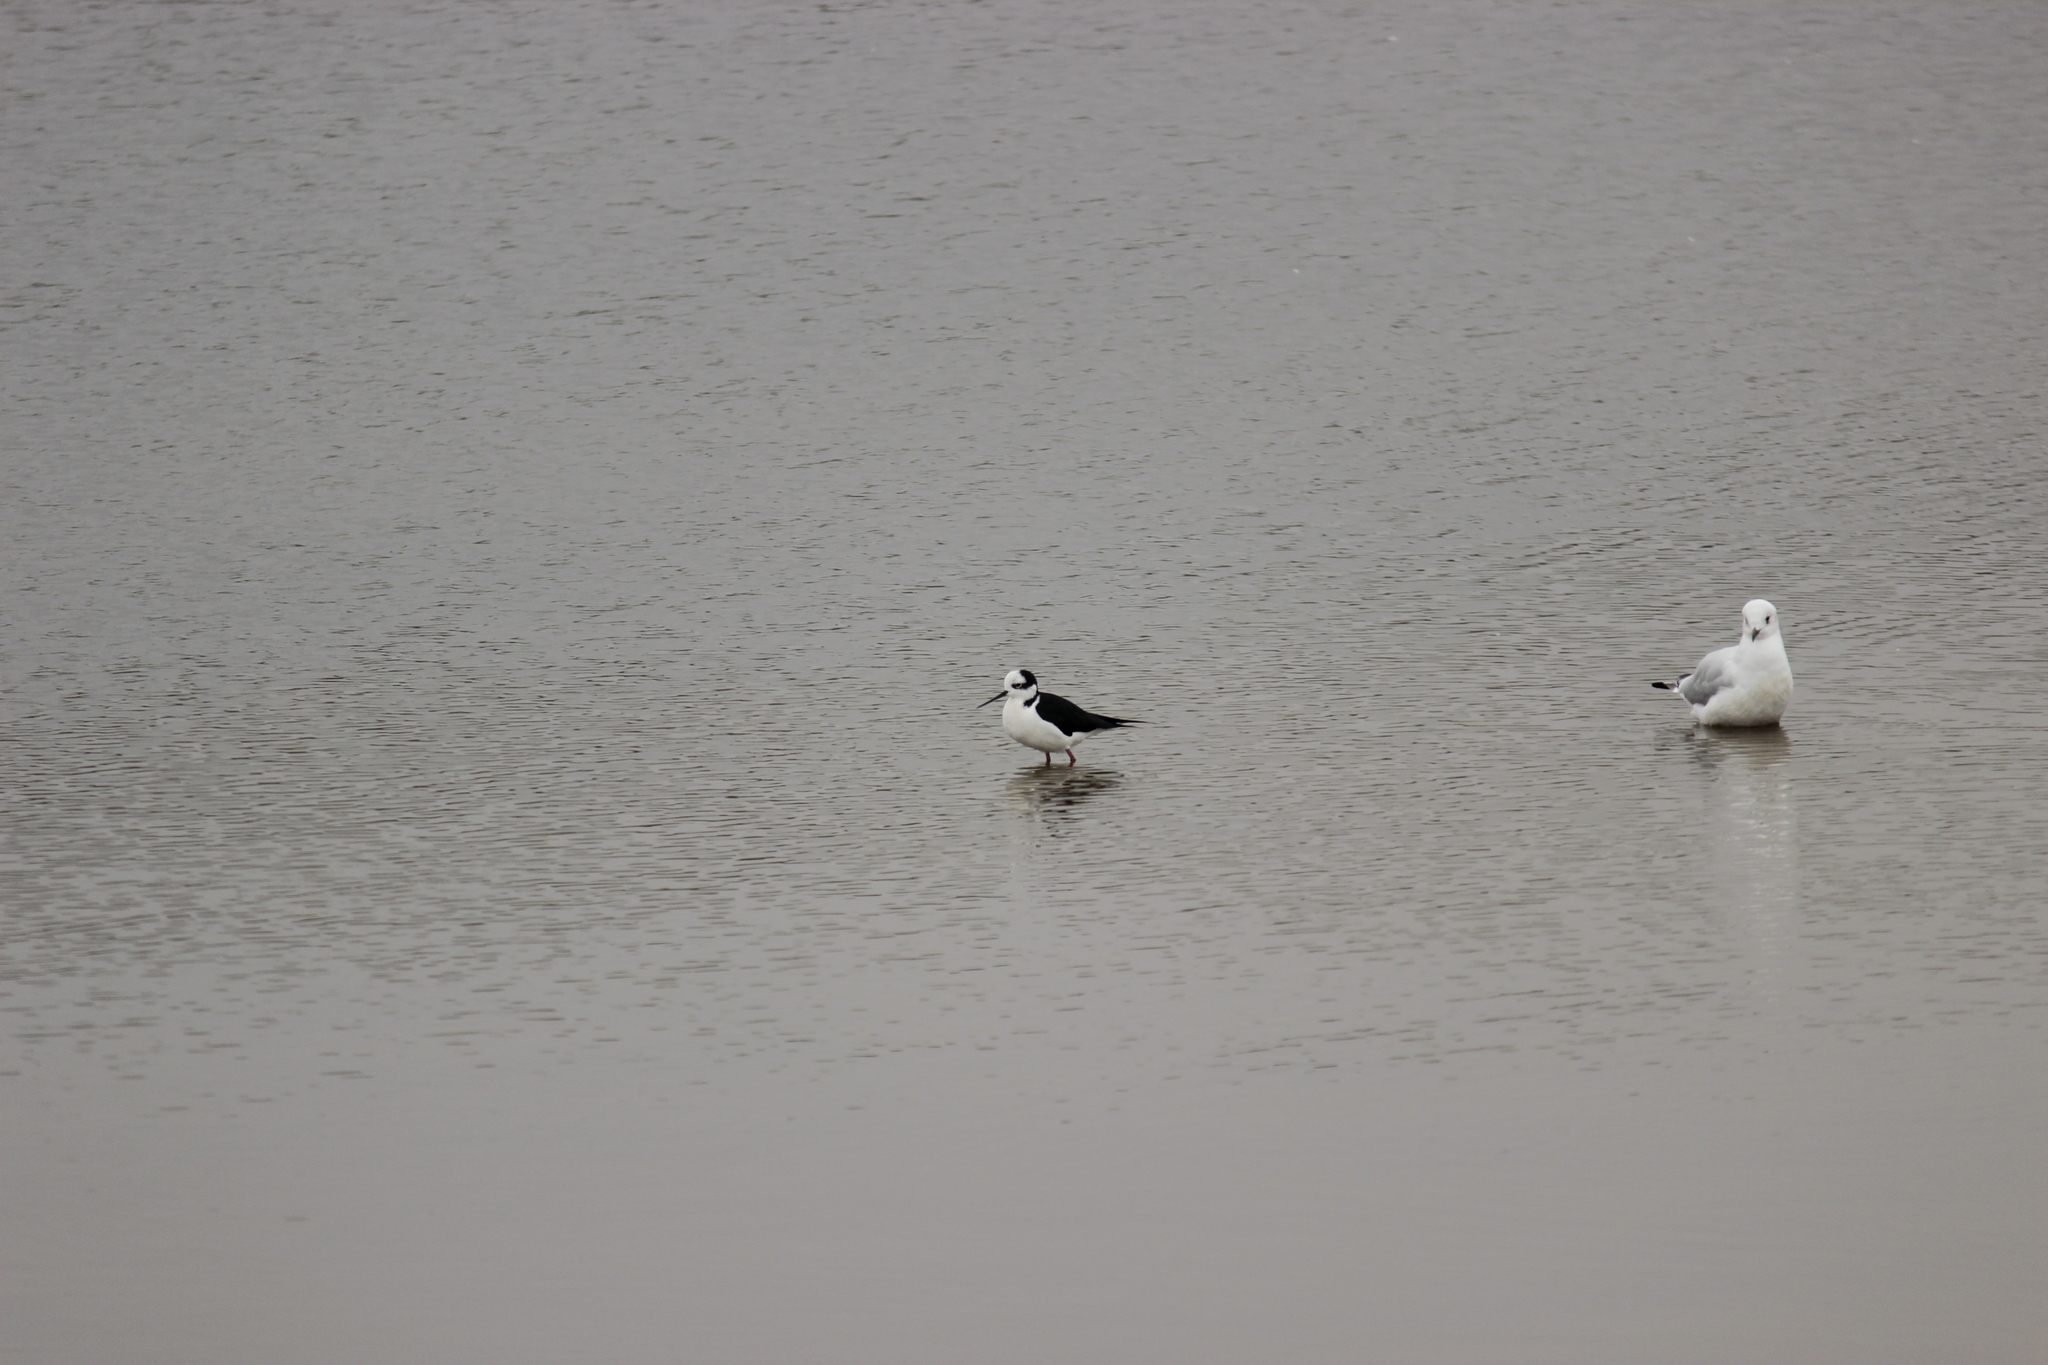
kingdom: Animalia
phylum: Chordata
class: Aves
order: Charadriiformes
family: Recurvirostridae
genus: Himantopus
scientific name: Himantopus mexicanus
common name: Black-necked stilt
